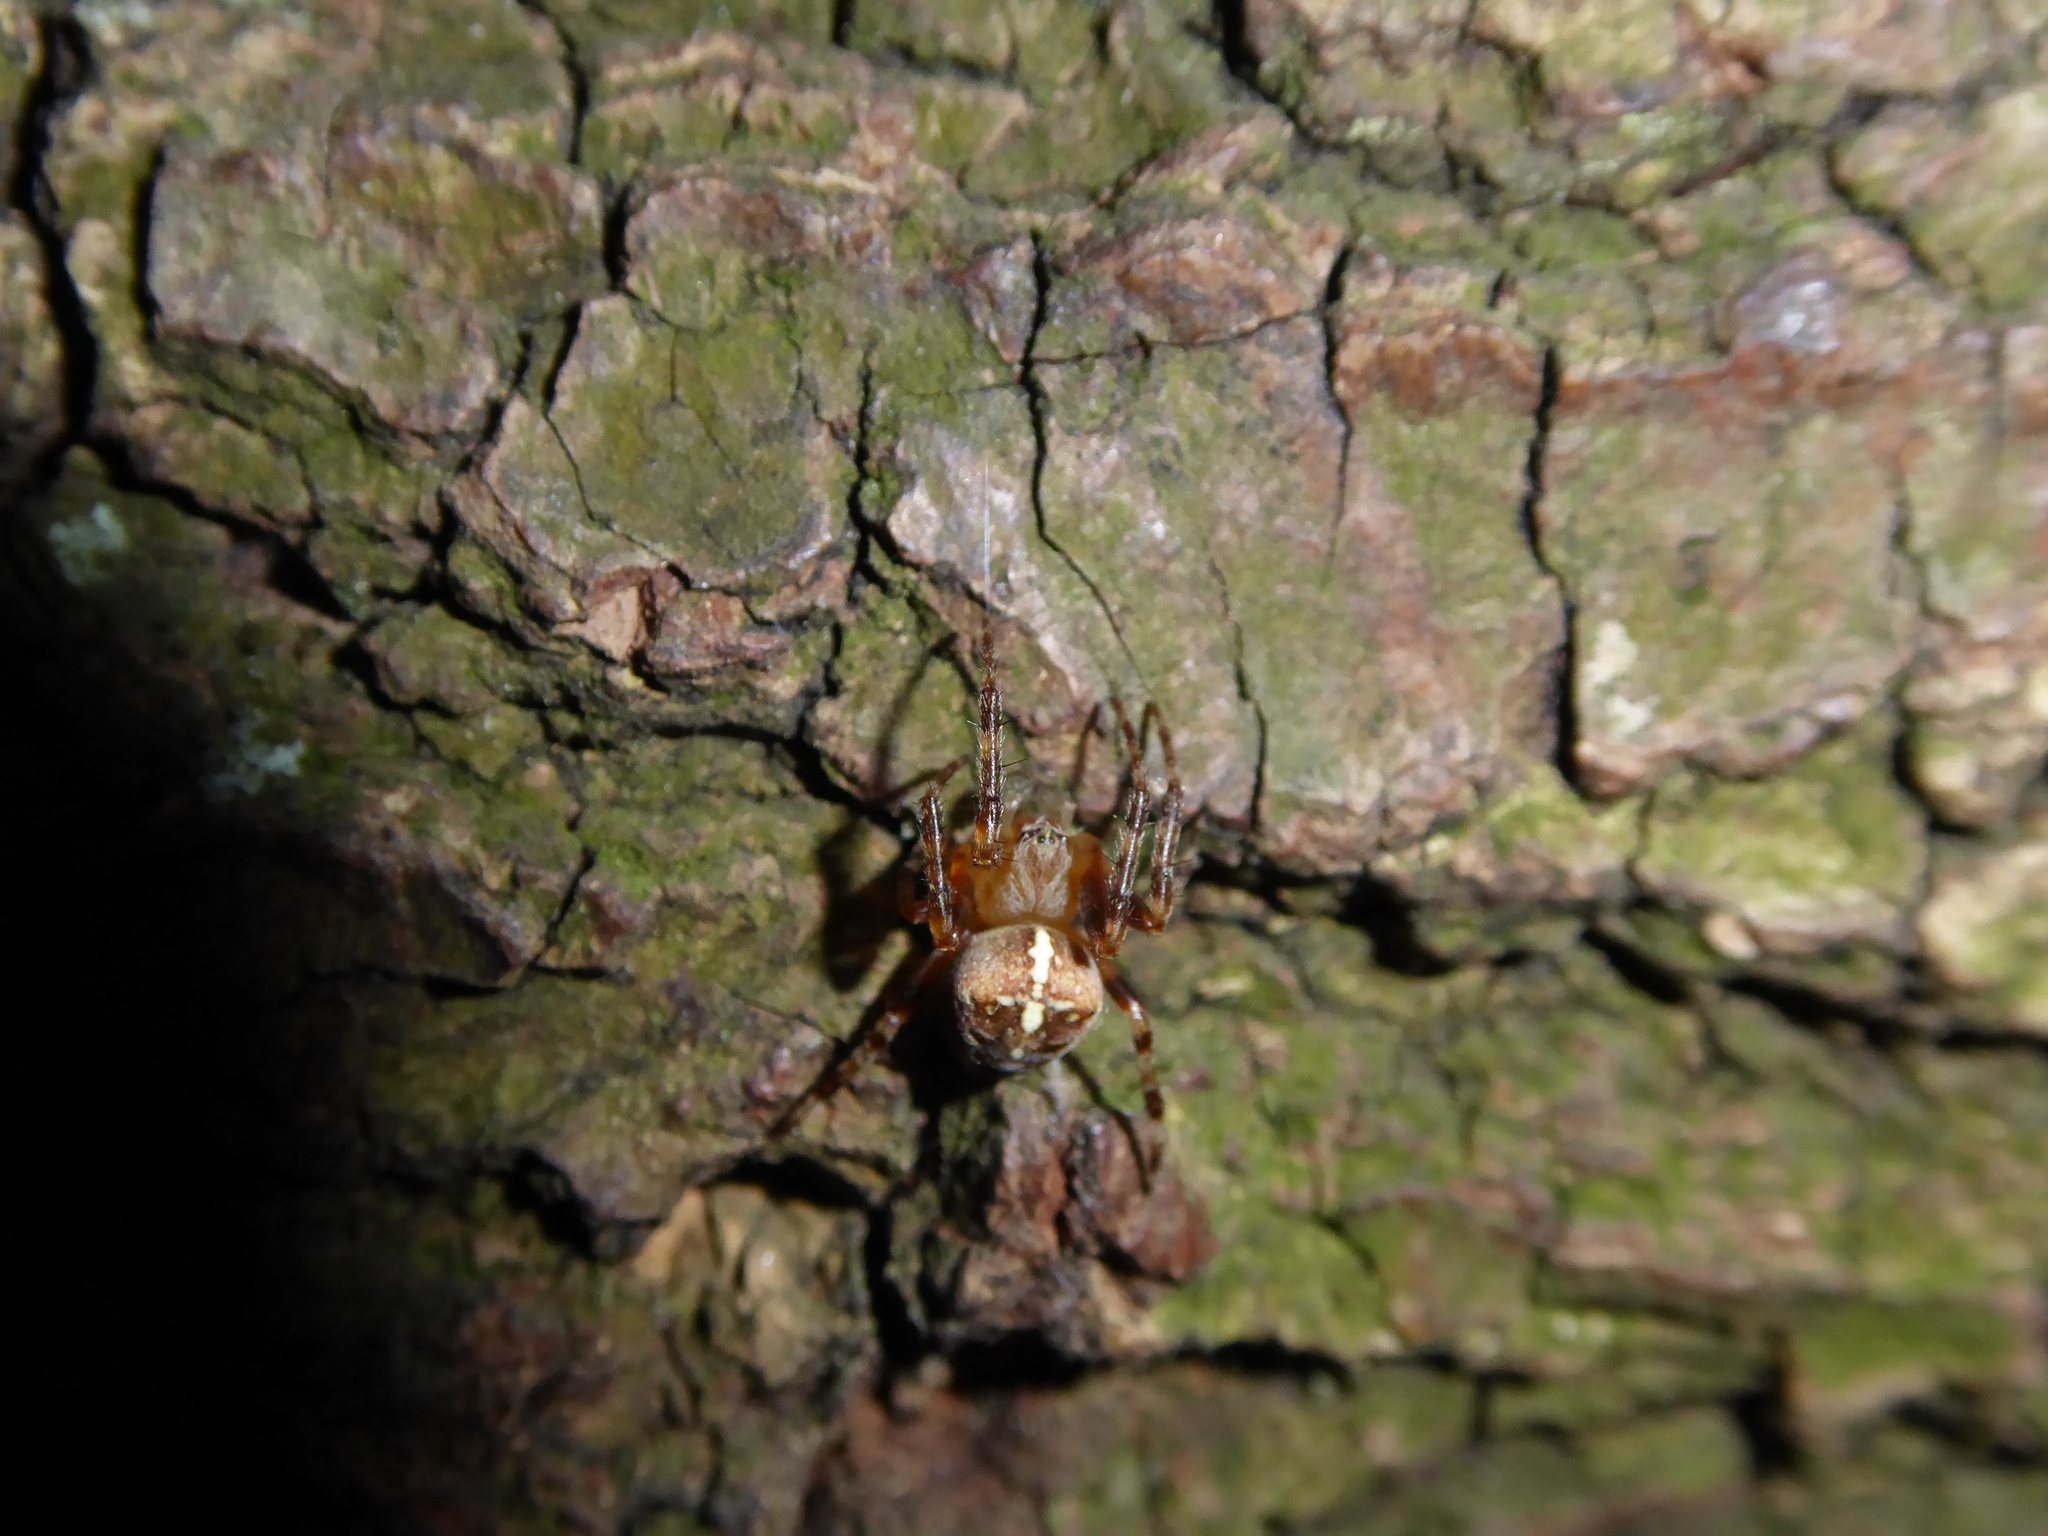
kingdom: Animalia
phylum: Arthropoda
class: Arachnida
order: Araneae
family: Araneidae
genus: Araneus
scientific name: Araneus diadematus
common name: Cross orbweaver
